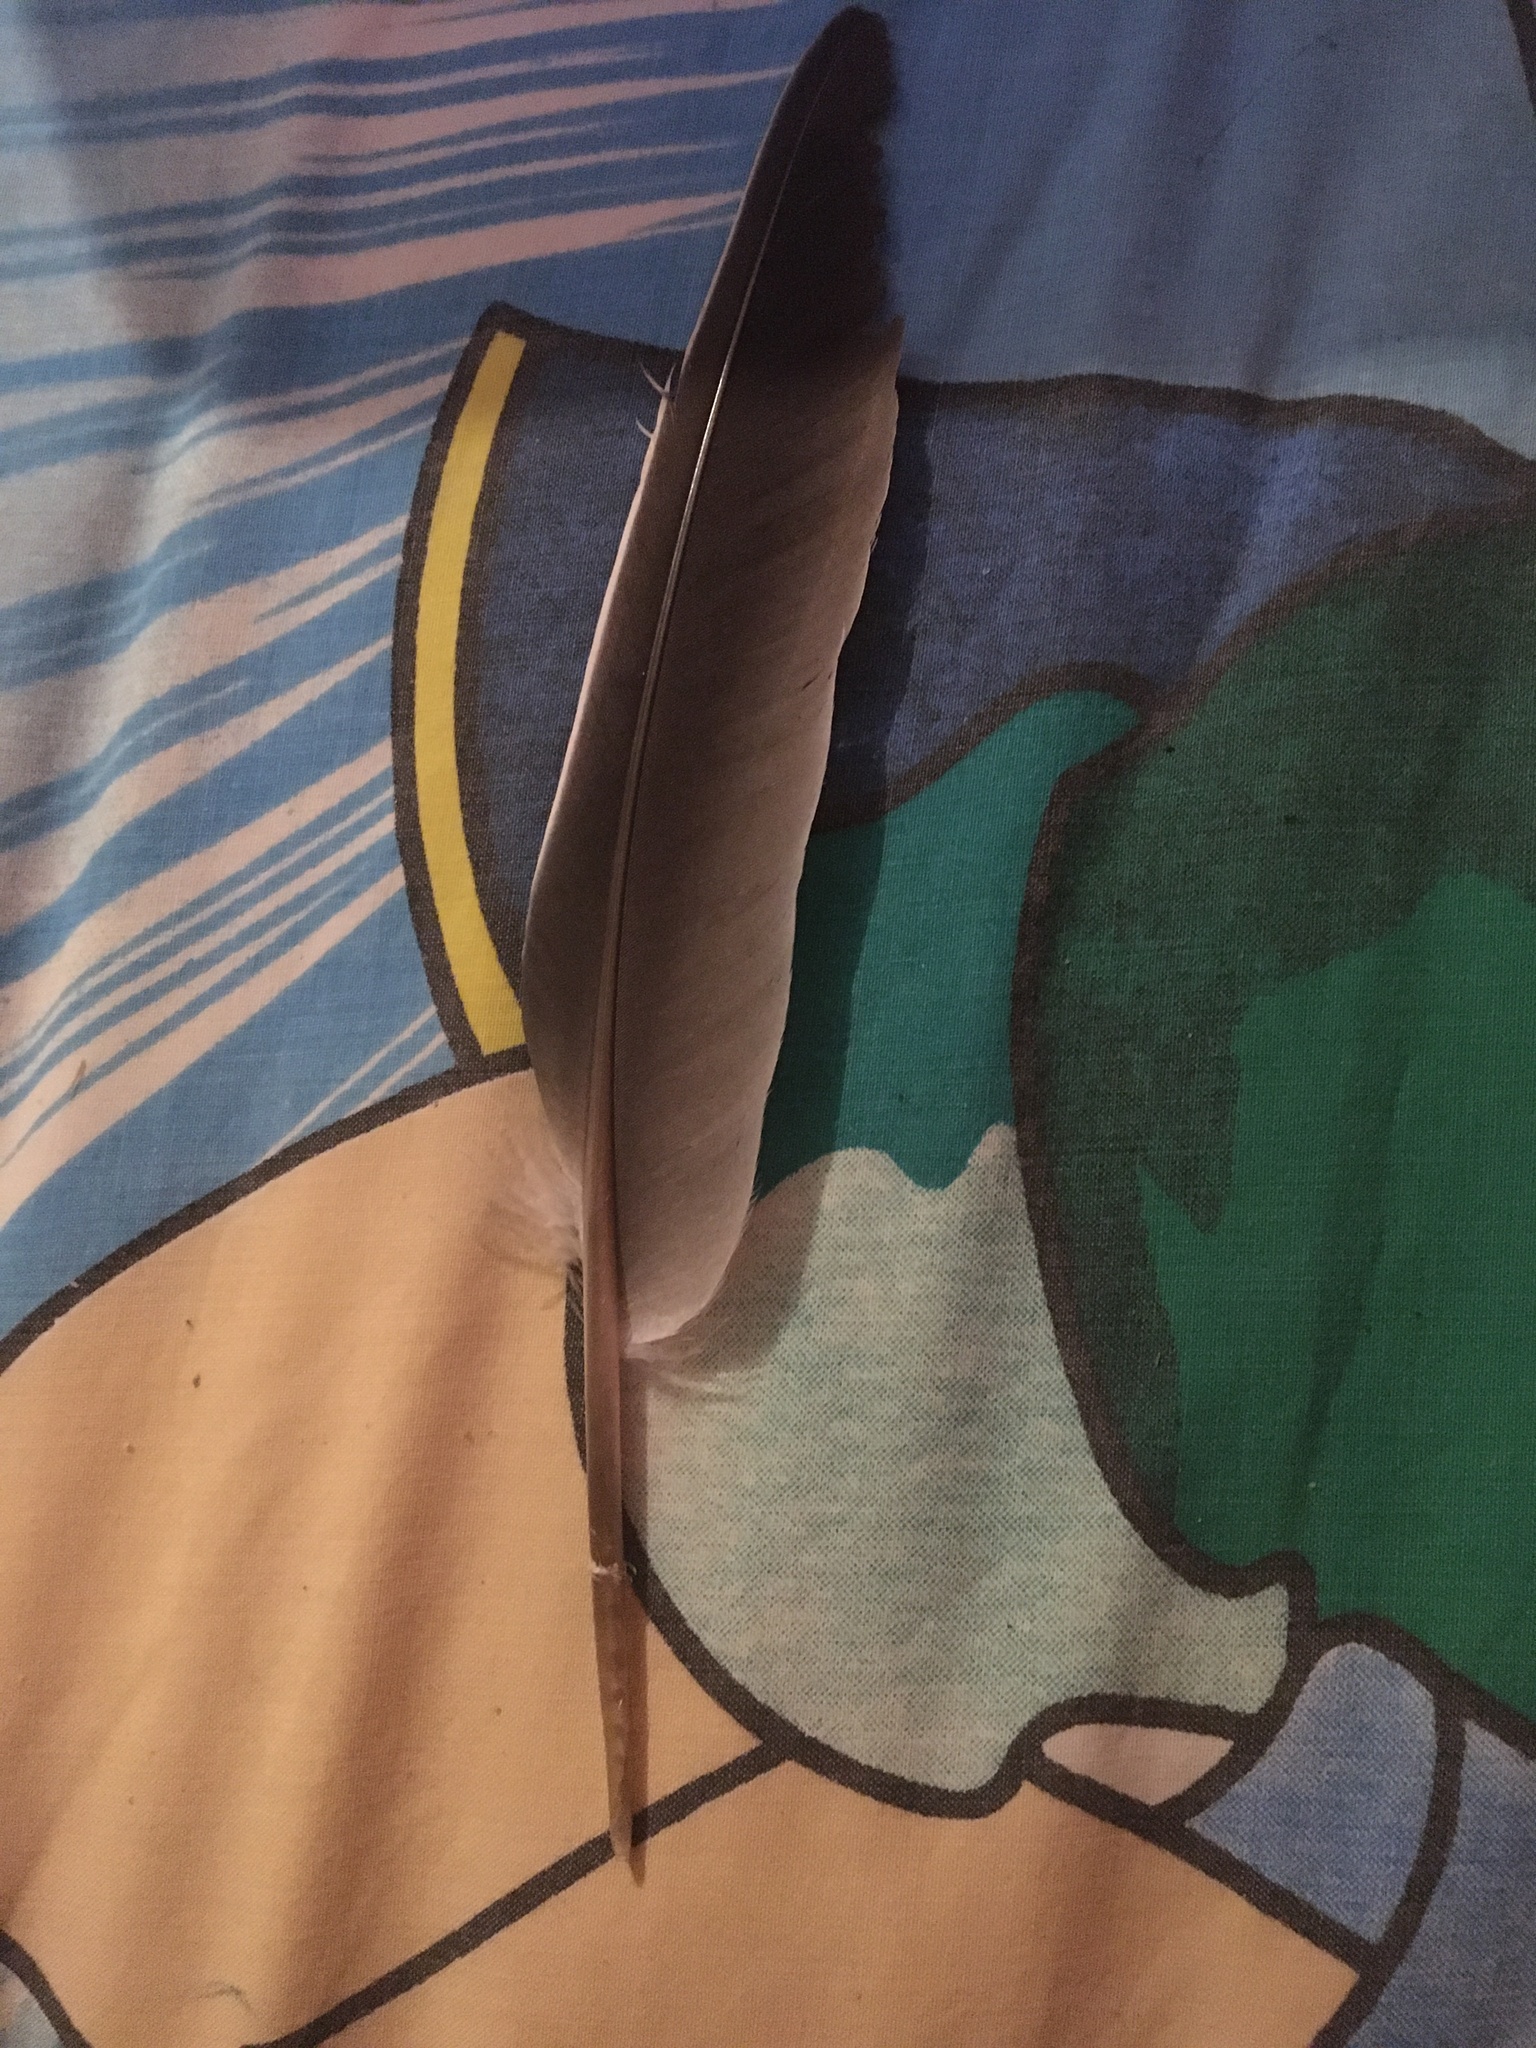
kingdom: Animalia
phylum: Chordata
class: Aves
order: Columbiformes
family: Columbidae
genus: Columba
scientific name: Columba palumbus
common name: Common wood pigeon
